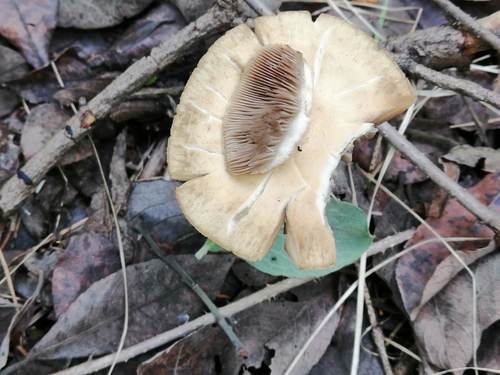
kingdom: Fungi
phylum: Basidiomycota
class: Agaricomycetes
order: Agaricales
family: Strophariaceae
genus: Agrocybe
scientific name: Agrocybe praecox
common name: Spring fieldcap
